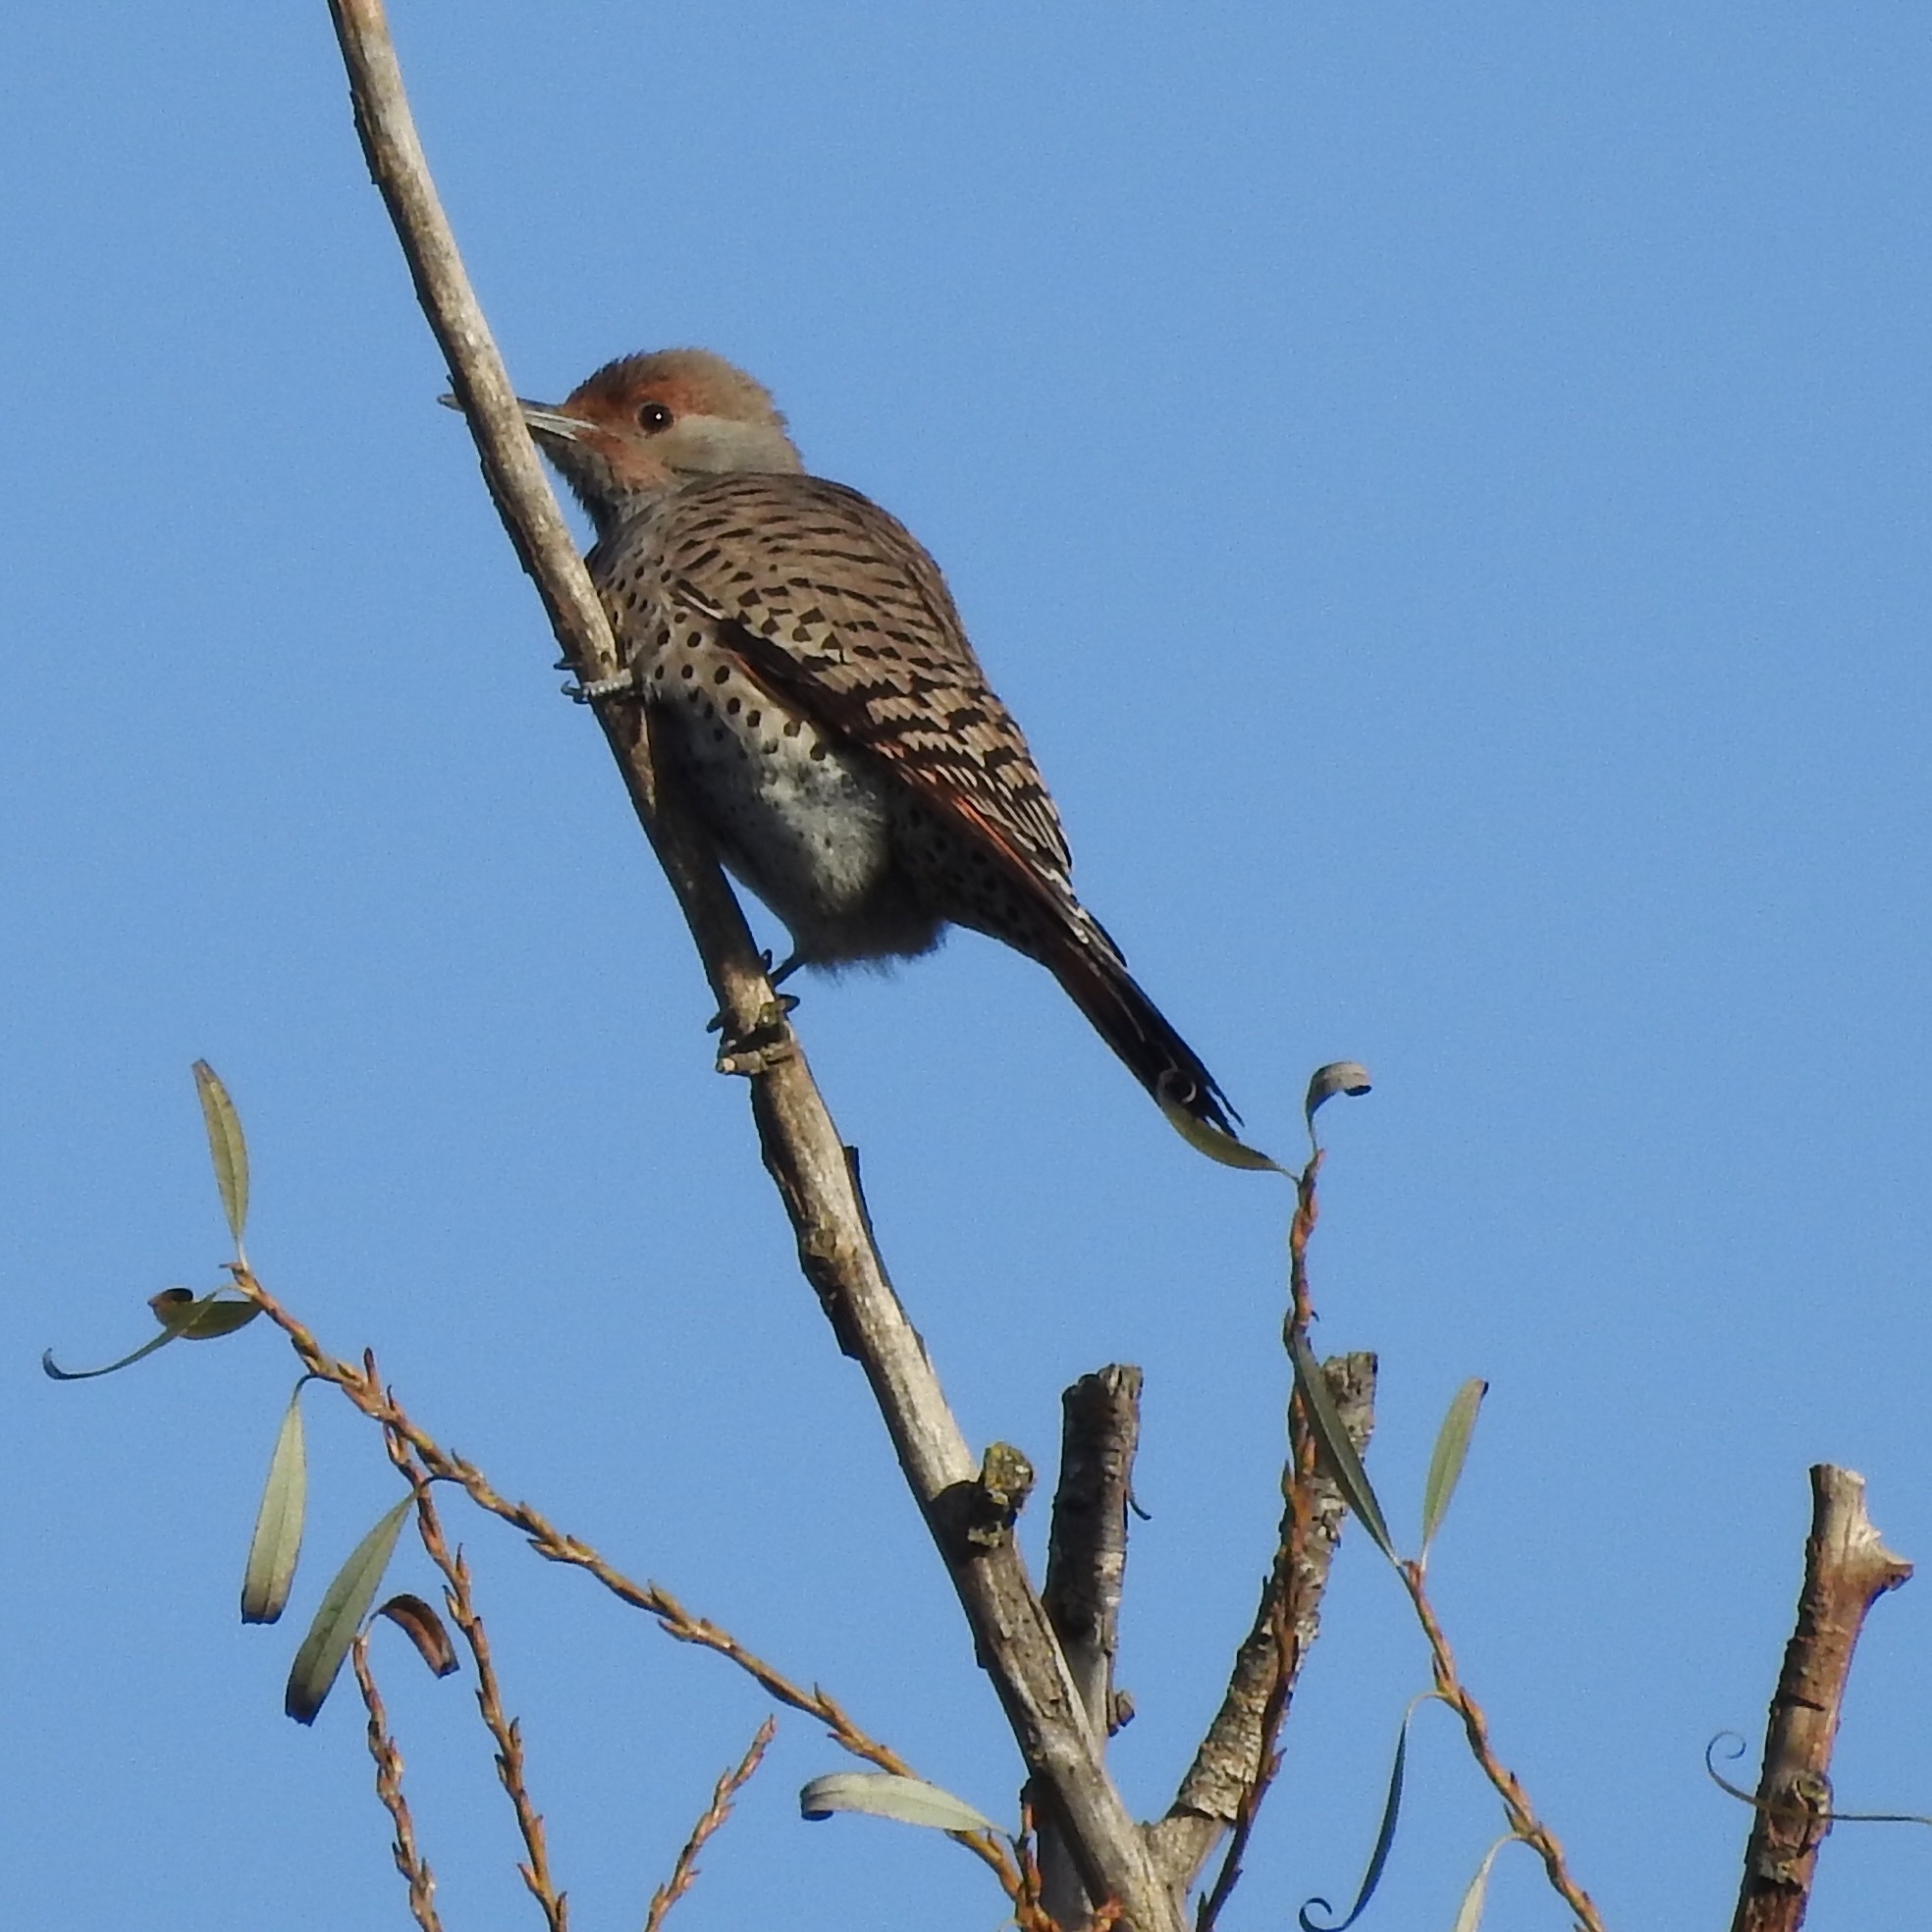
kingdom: Animalia
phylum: Chordata
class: Aves
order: Piciformes
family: Picidae
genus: Colaptes
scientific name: Colaptes auratus
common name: Northern flicker
